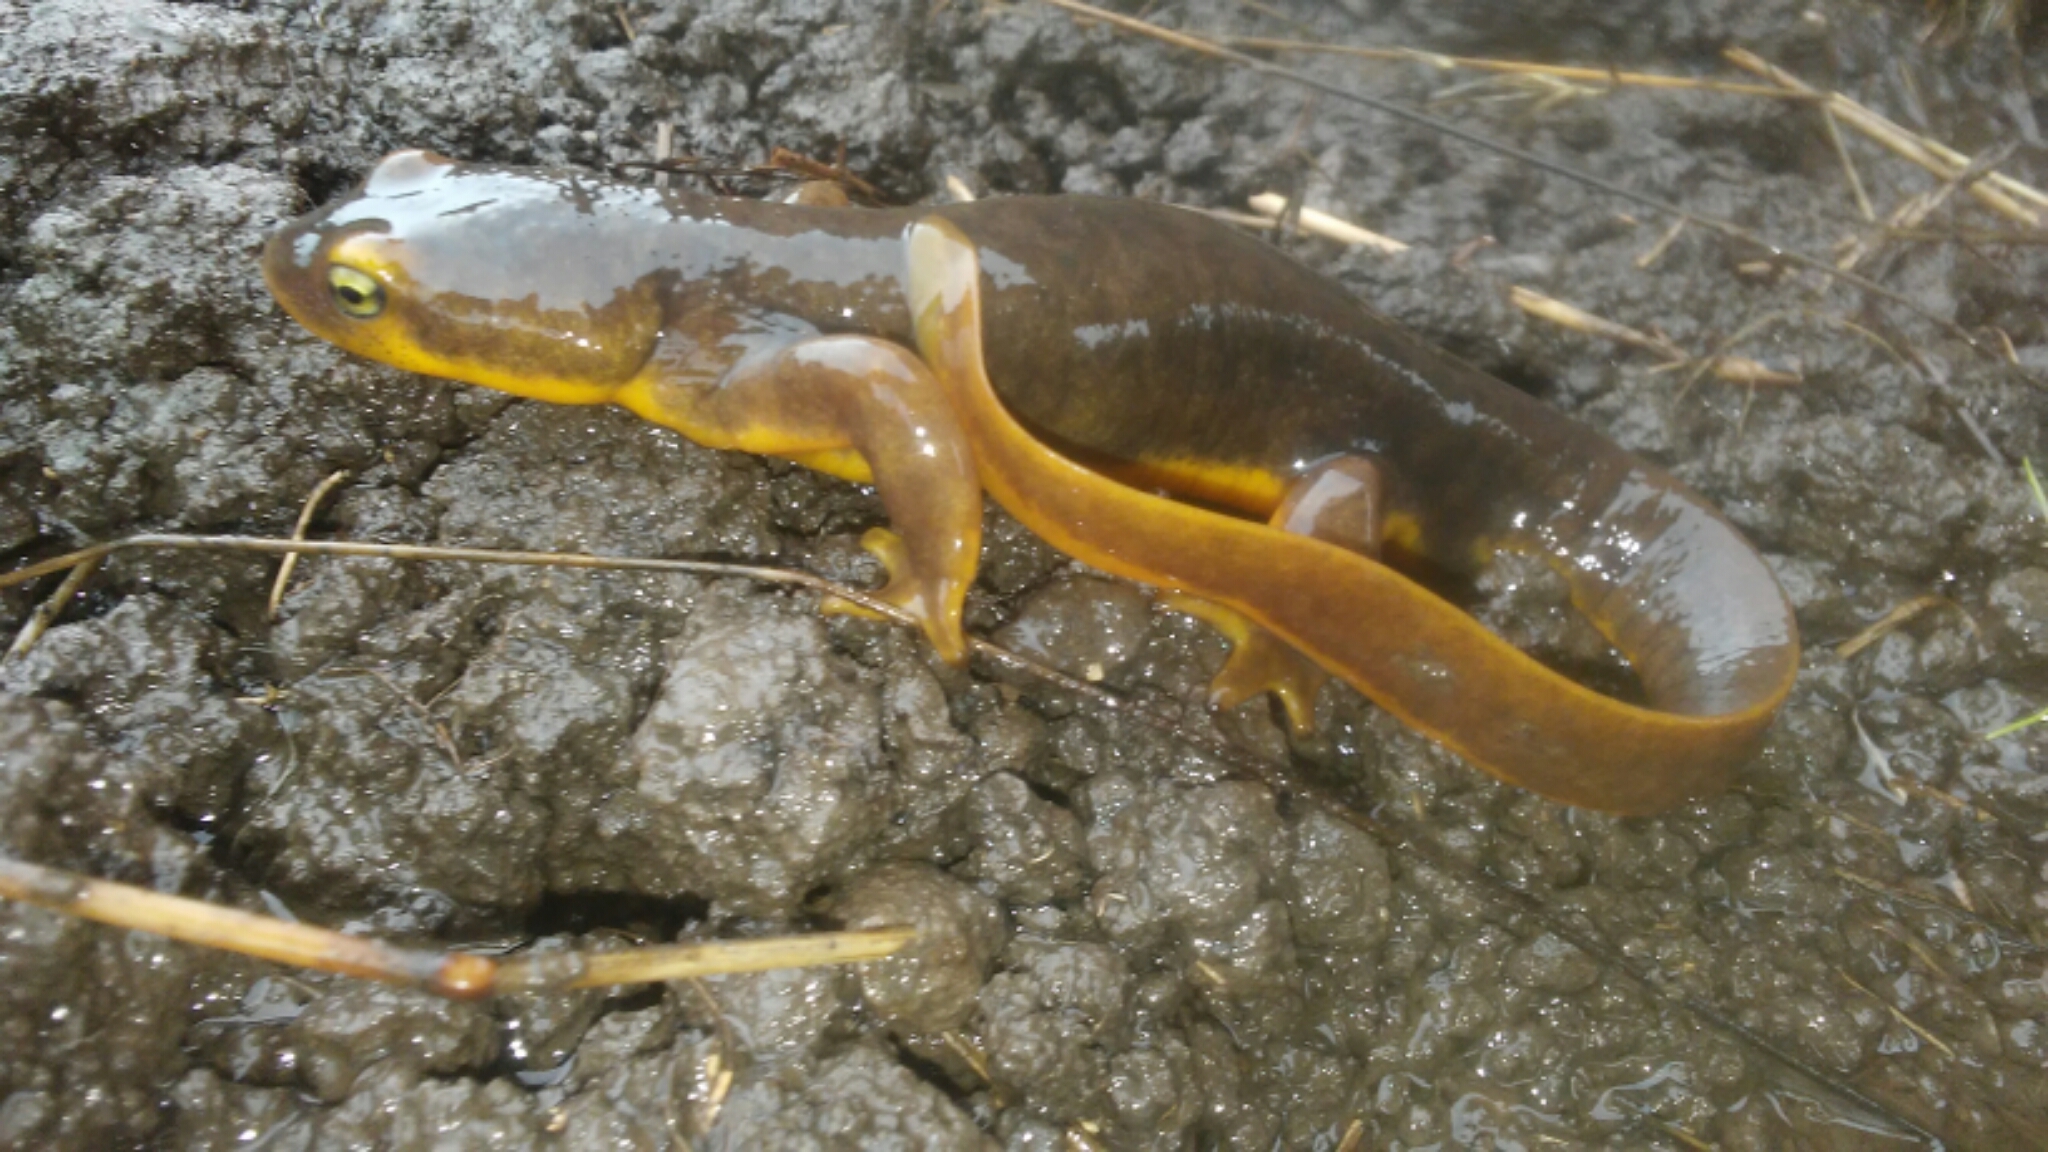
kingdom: Animalia
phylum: Chordata
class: Amphibia
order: Caudata
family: Salamandridae
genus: Taricha
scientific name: Taricha torosa
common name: California newt
